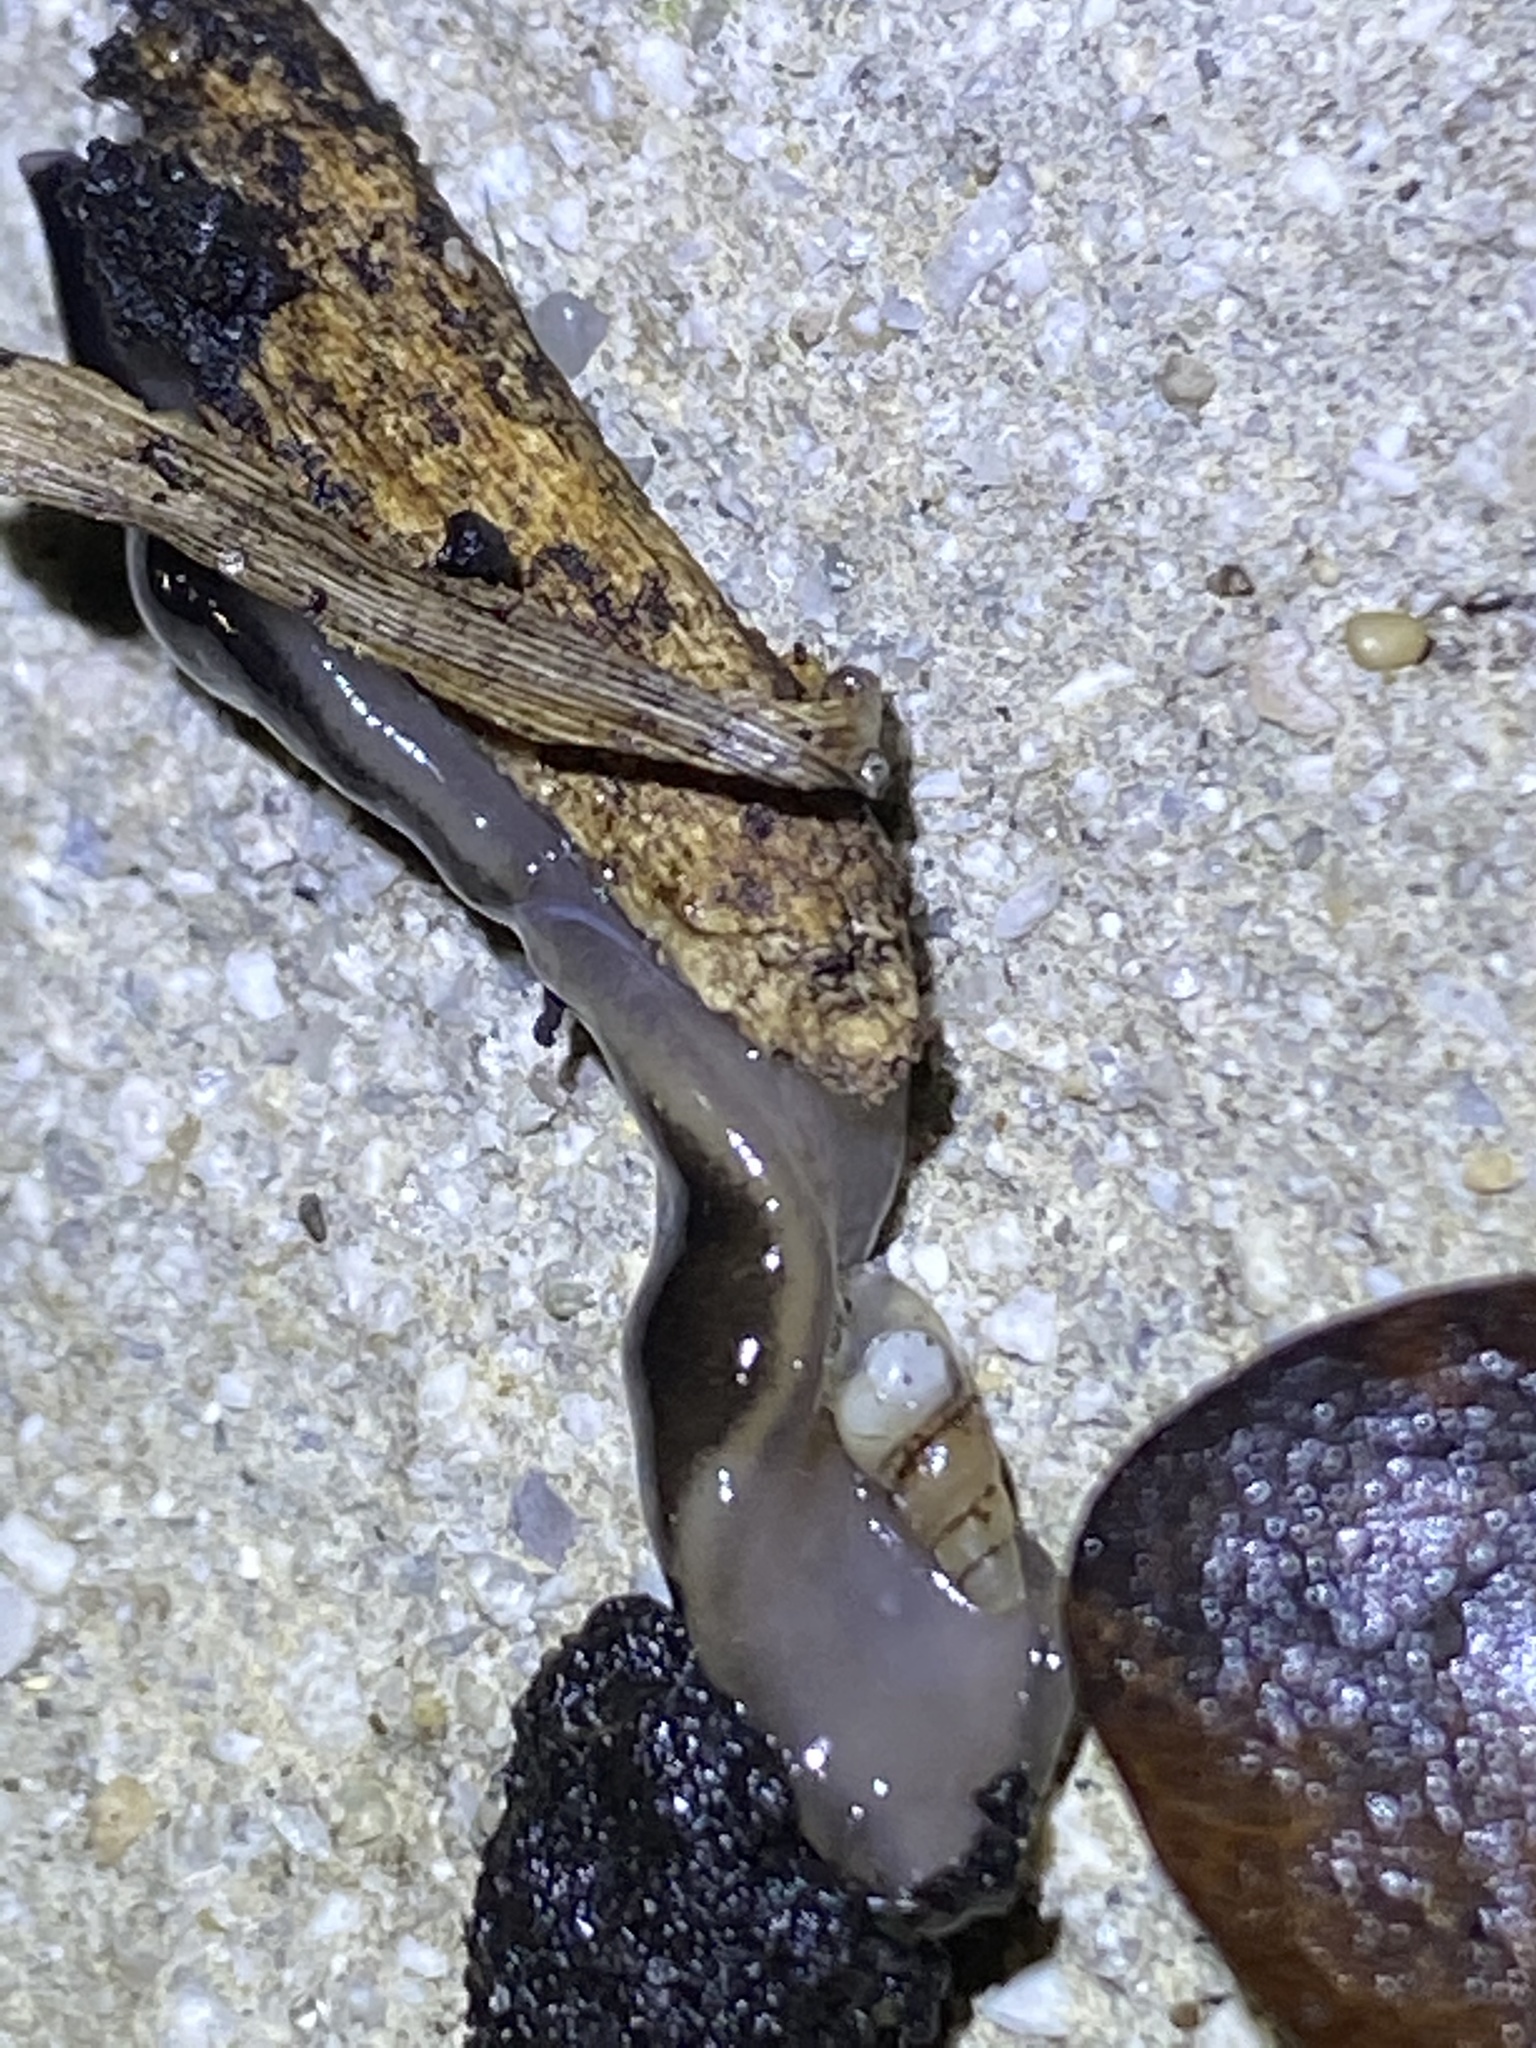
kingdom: Animalia
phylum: Platyhelminthes
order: Tricladida
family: Geoplanidae
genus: Platydemus
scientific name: Platydemus manokwari
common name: New guinea flatworm
